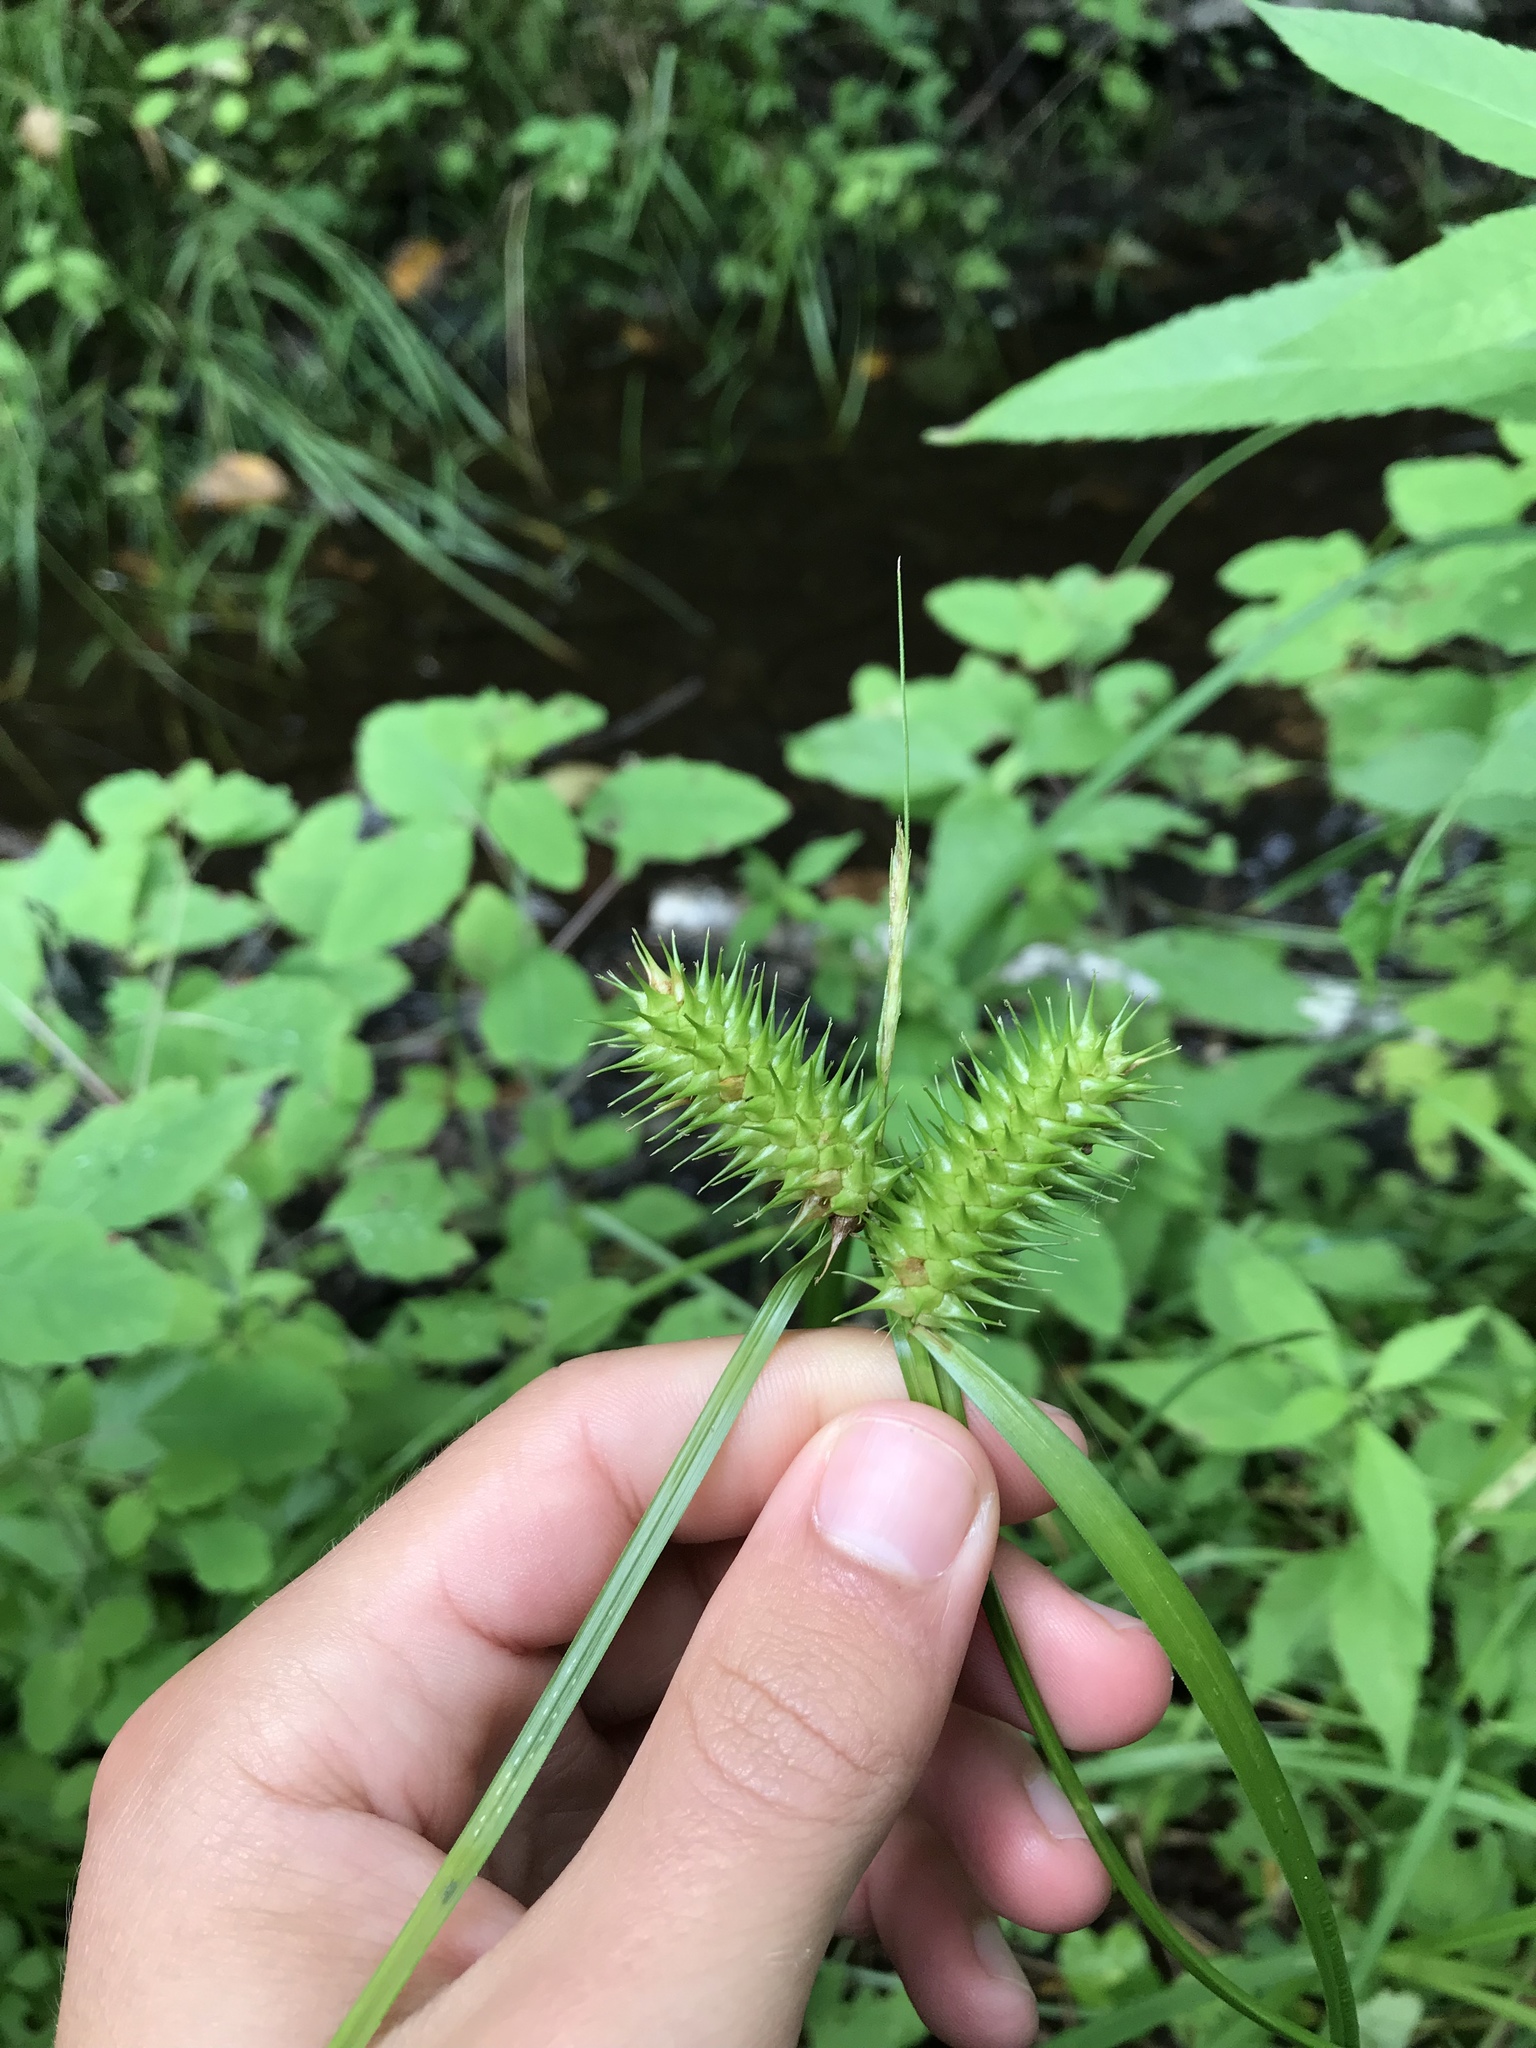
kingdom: Plantae
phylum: Tracheophyta
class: Liliopsida
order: Poales
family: Cyperaceae
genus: Carex
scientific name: Carex lurida
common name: Sallow sedge
